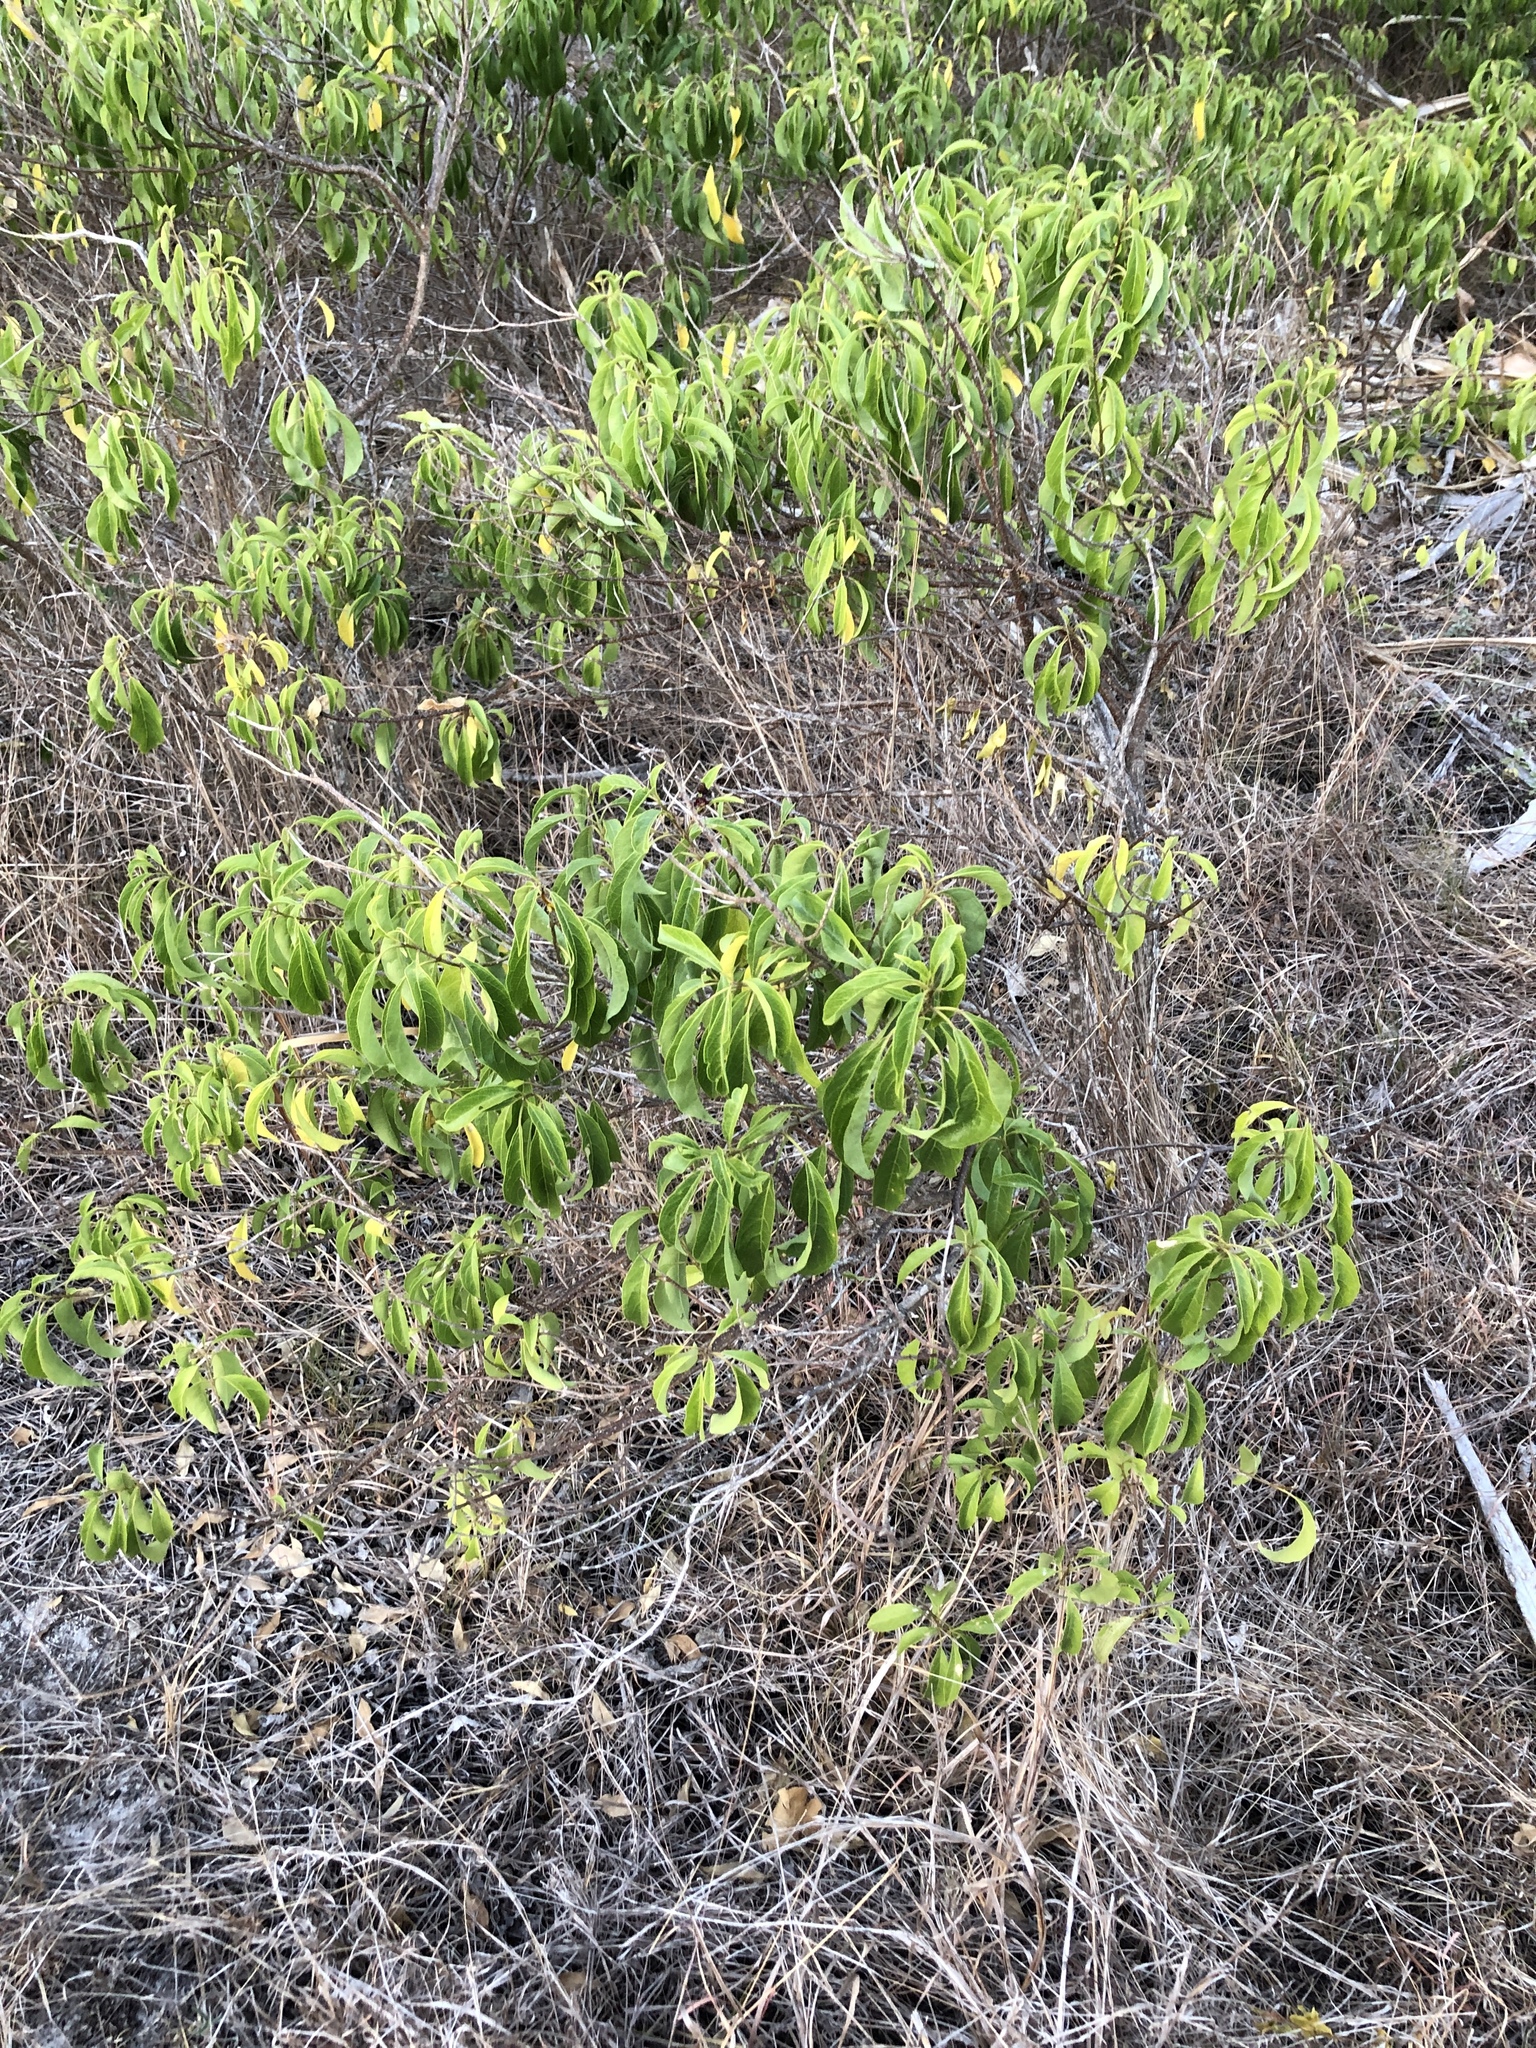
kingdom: Plantae
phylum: Tracheophyta
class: Magnoliopsida
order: Lamiales
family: Lamiaceae
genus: Clerodendrum
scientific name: Clerodendrum floribundum
